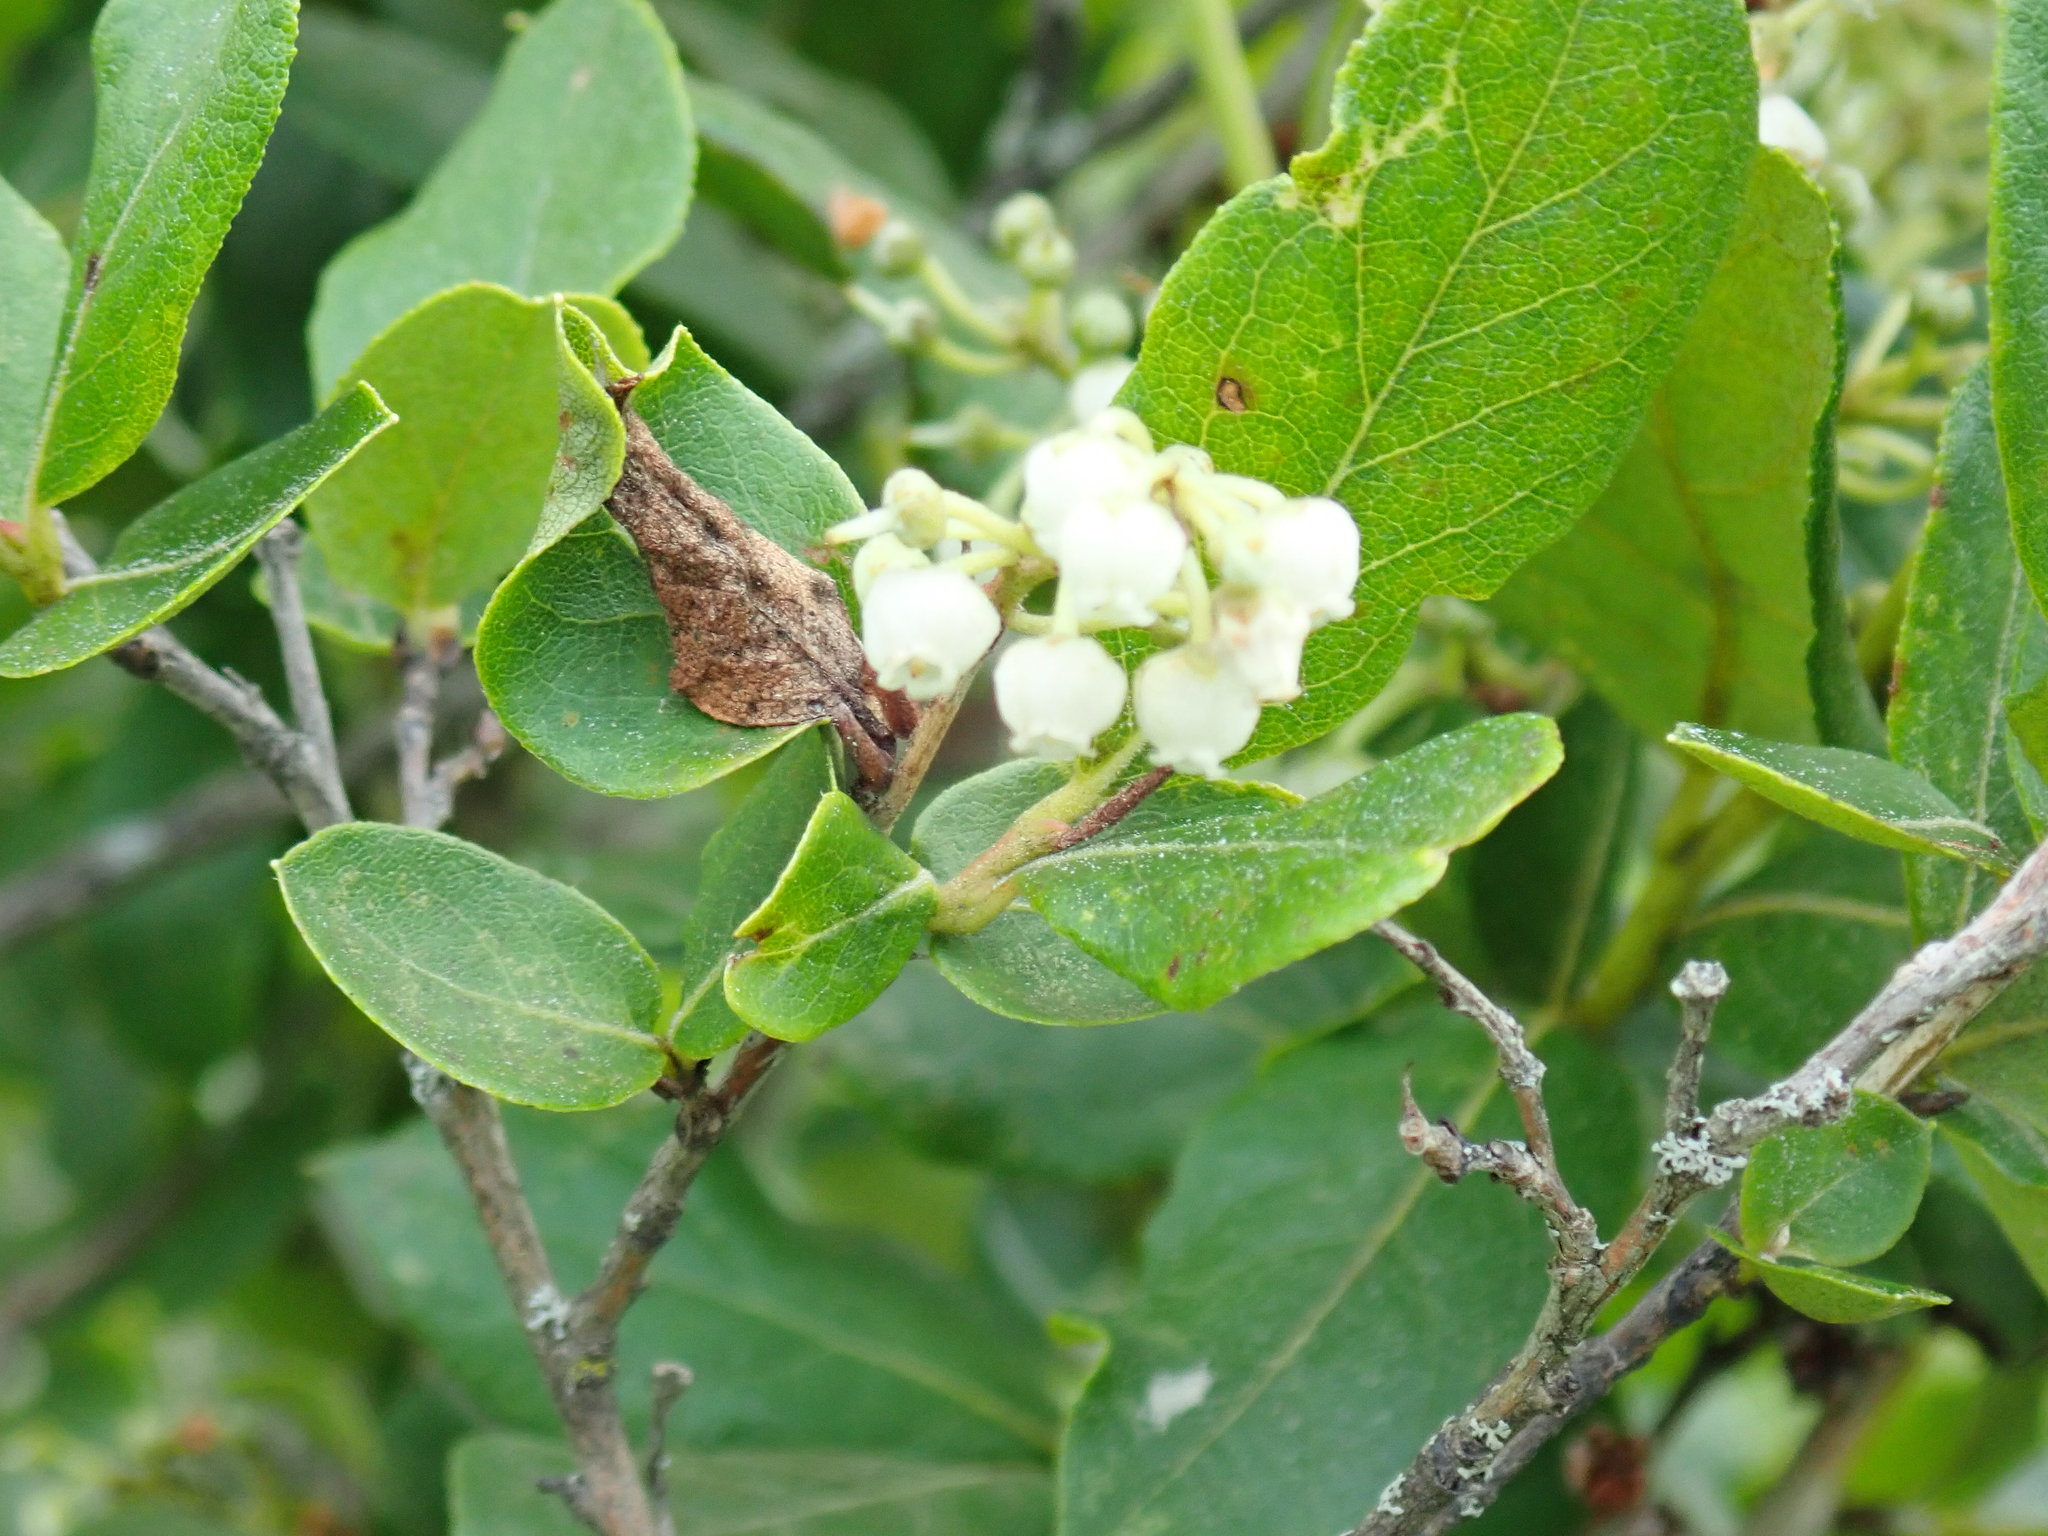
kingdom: Plantae
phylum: Tracheophyta
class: Magnoliopsida
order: Ericales
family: Ericaceae
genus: Lyonia
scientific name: Lyonia ligustrina
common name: Maleberry
